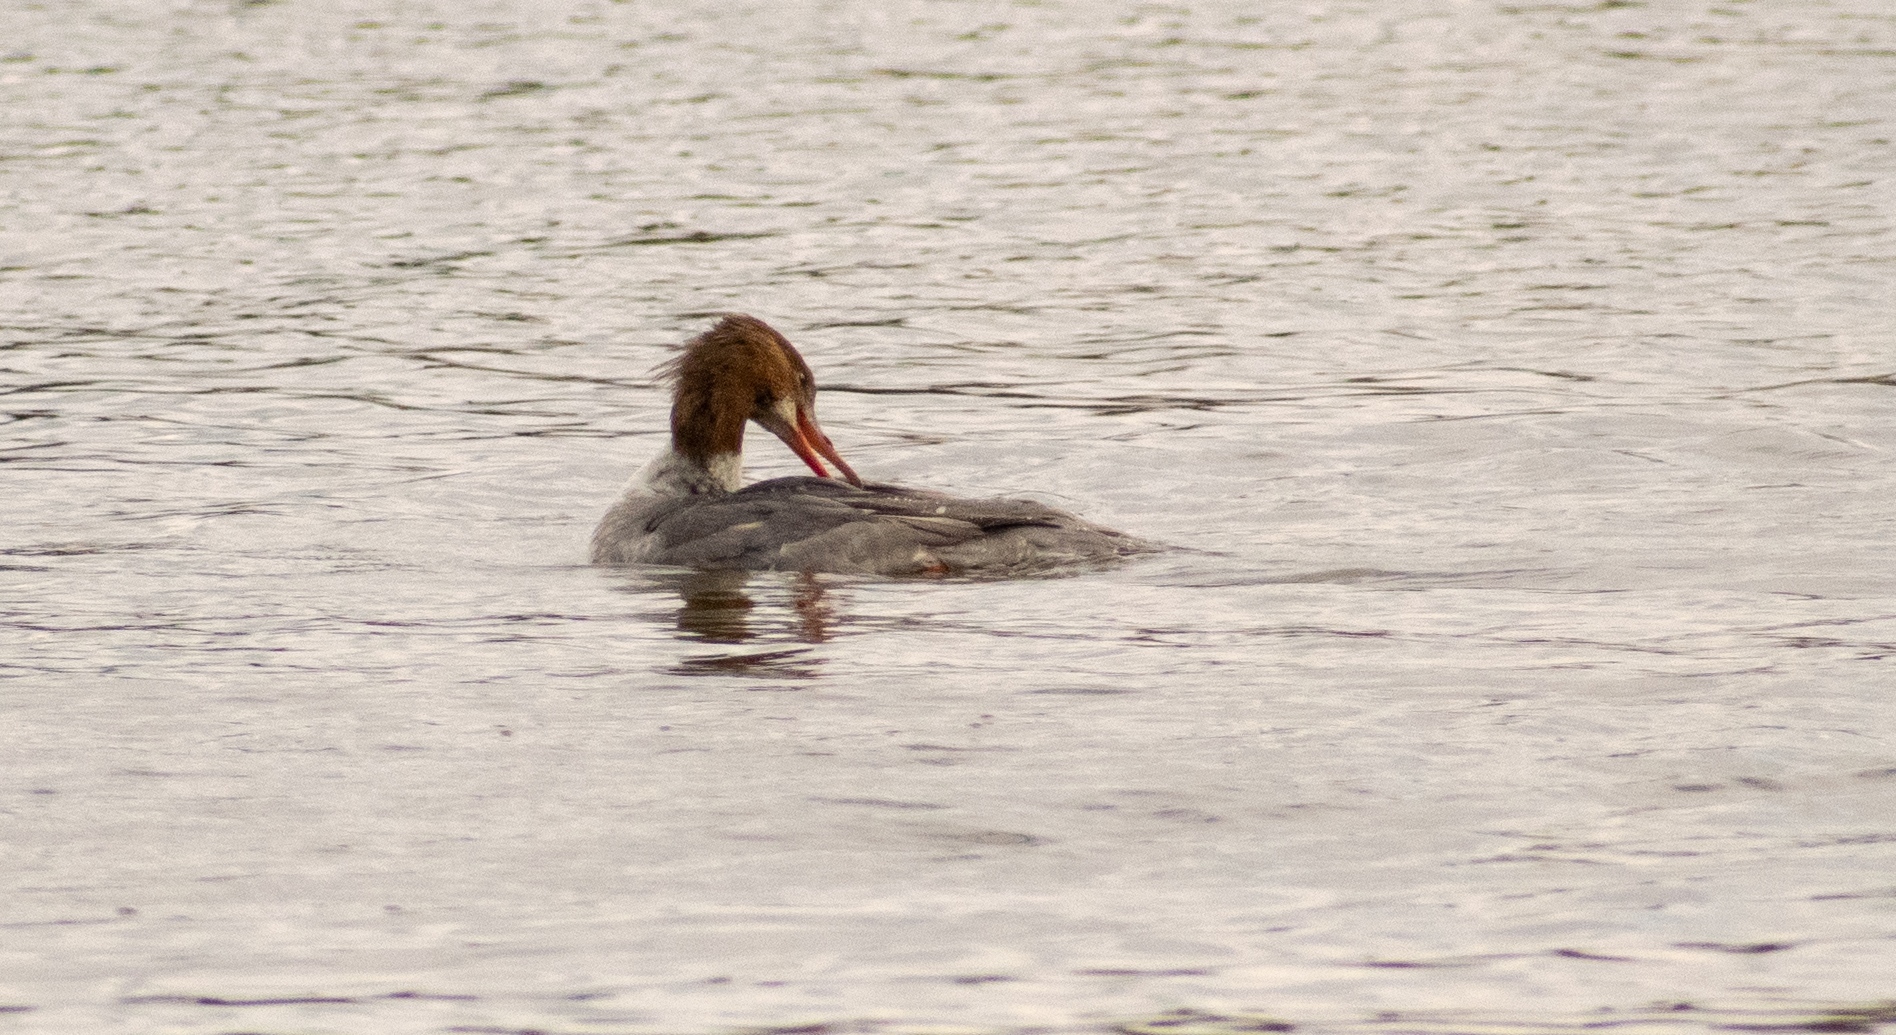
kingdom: Animalia
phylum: Chordata
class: Aves
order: Anseriformes
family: Anatidae
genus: Mergus
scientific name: Mergus merganser
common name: Common merganser
